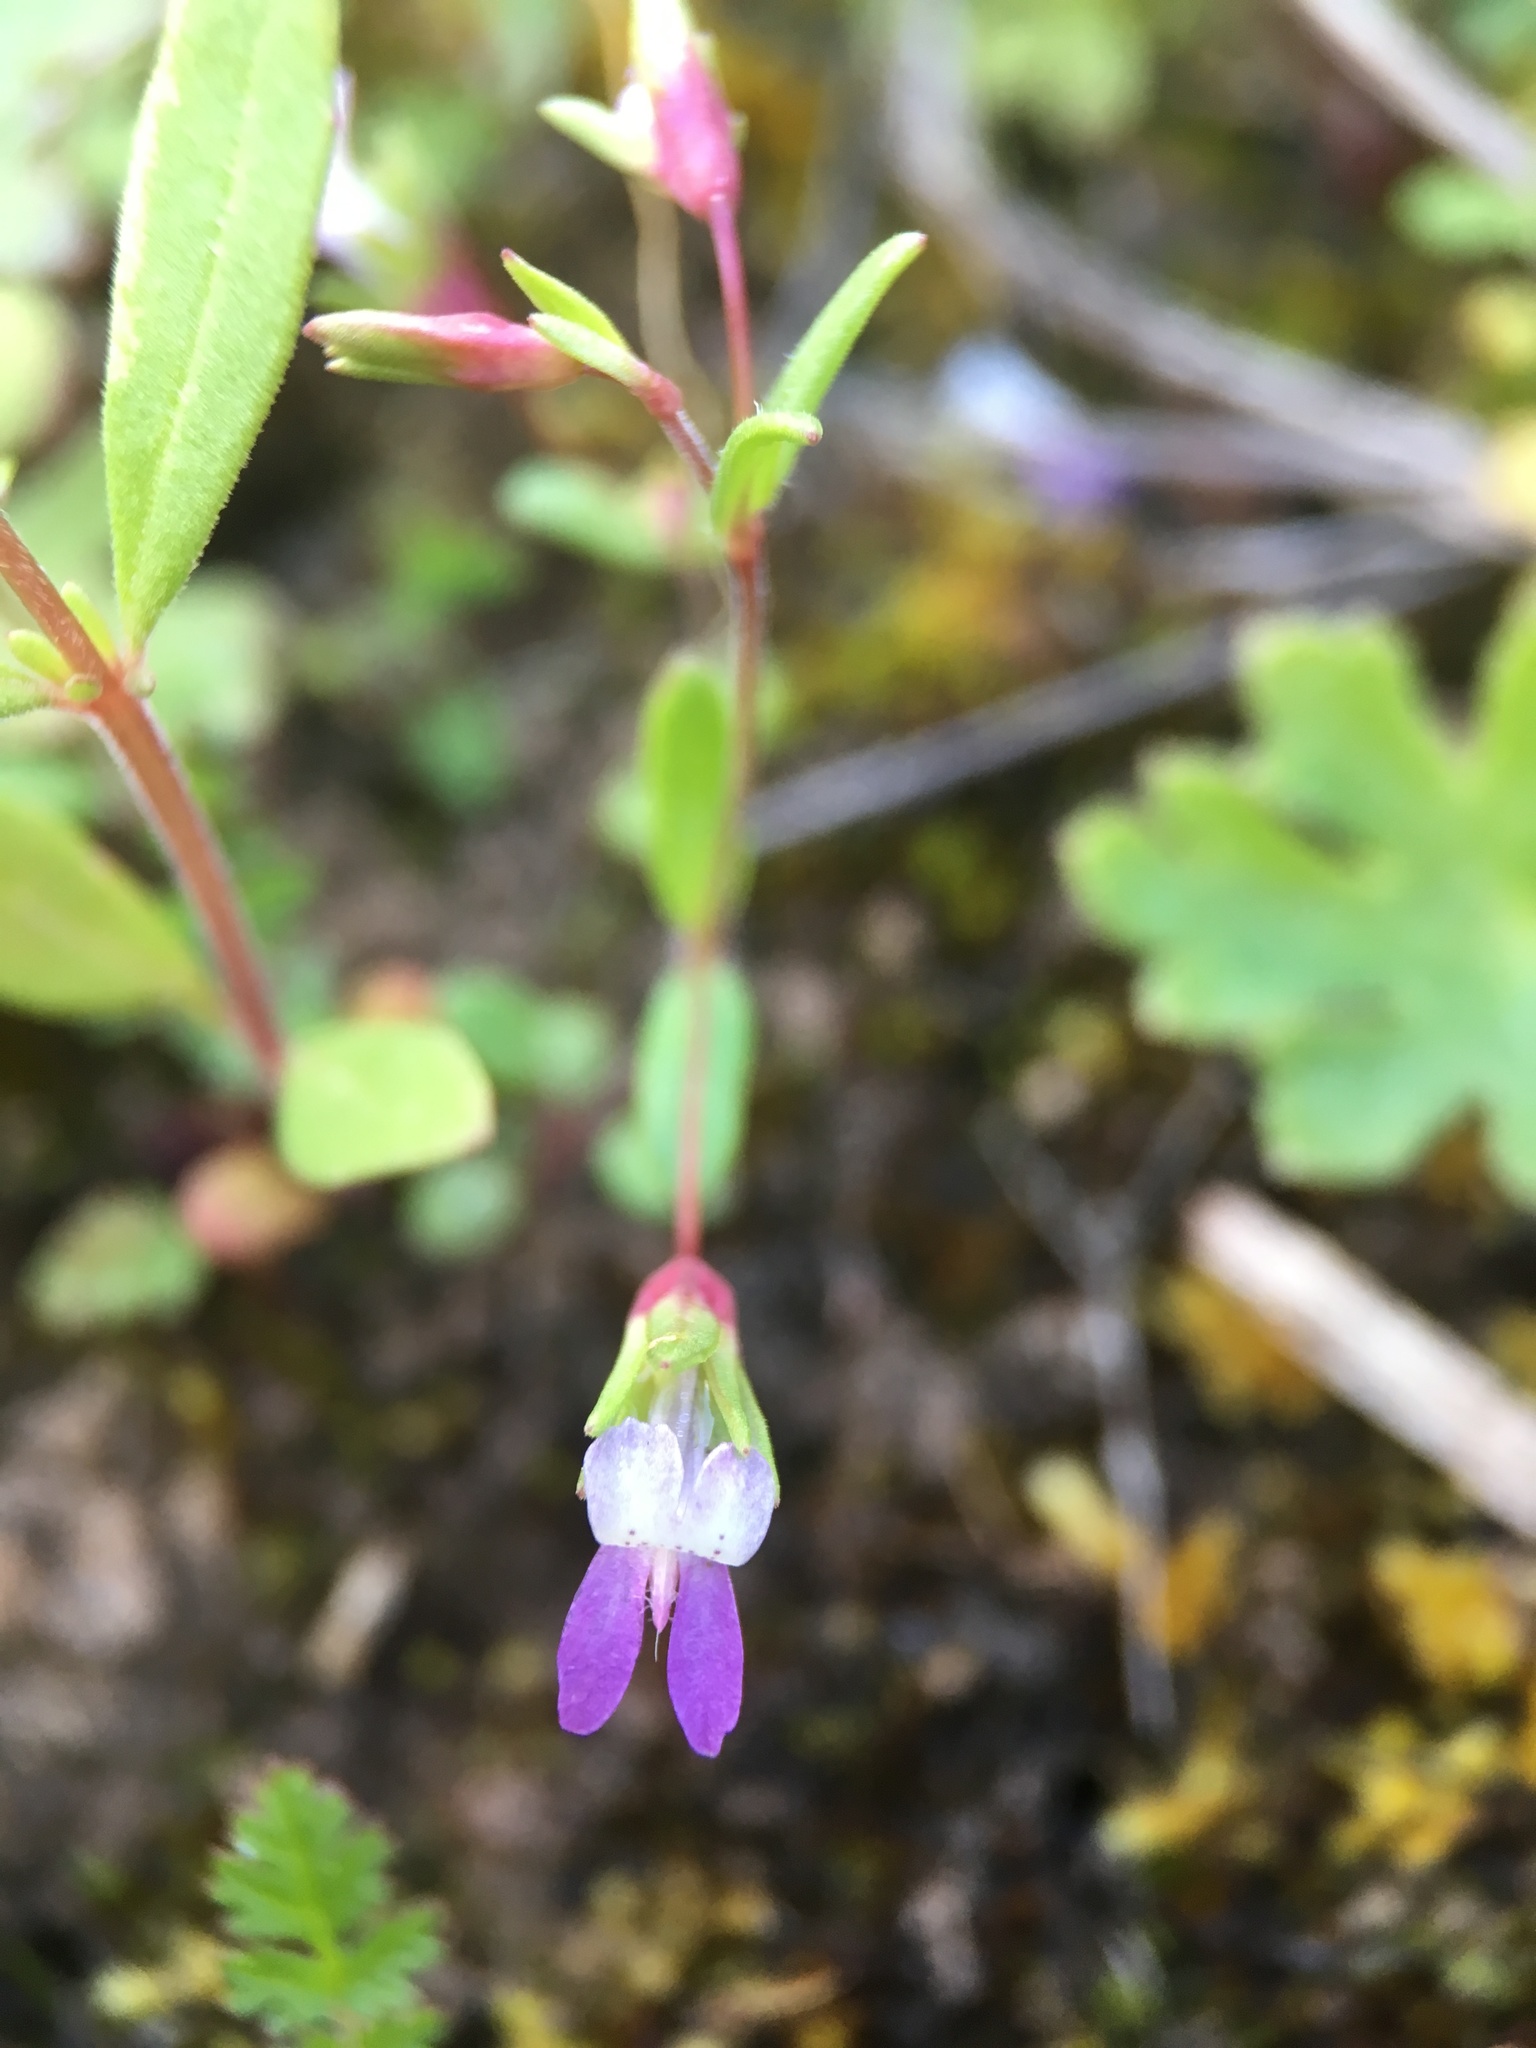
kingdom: Plantae
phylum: Tracheophyta
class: Magnoliopsida
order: Lamiales
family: Plantaginaceae
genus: Collinsia
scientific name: Collinsia sparsiflora
